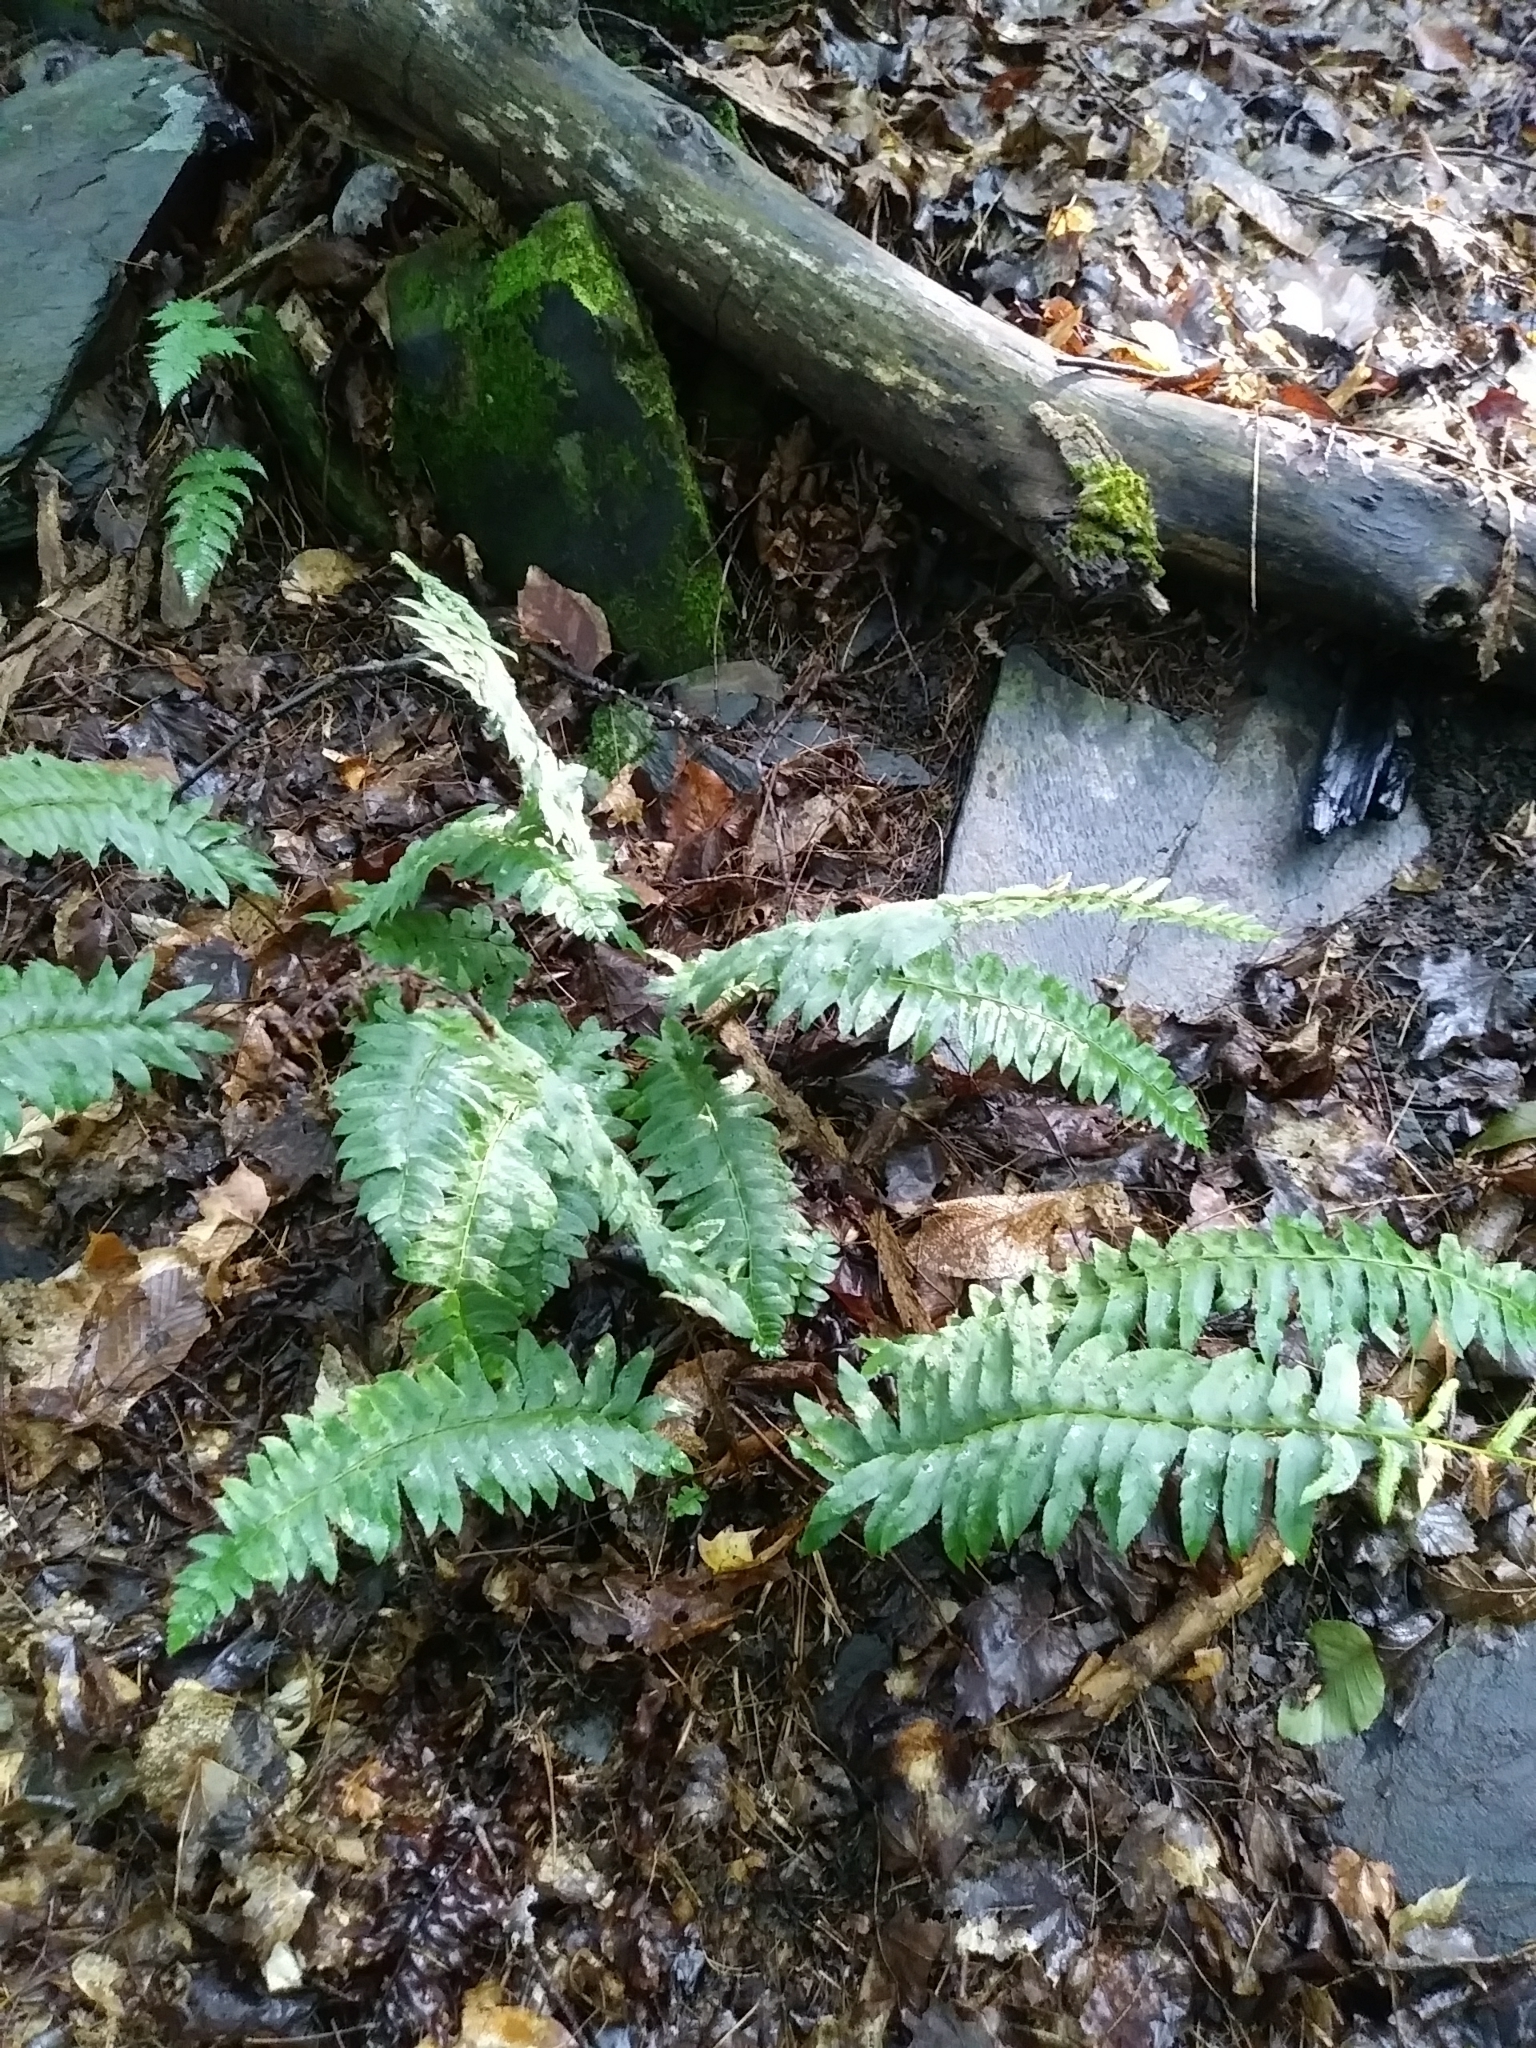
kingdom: Plantae
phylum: Tracheophyta
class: Polypodiopsida
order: Polypodiales
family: Dryopteridaceae
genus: Polystichum
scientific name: Polystichum acrostichoides
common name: Christmas fern
